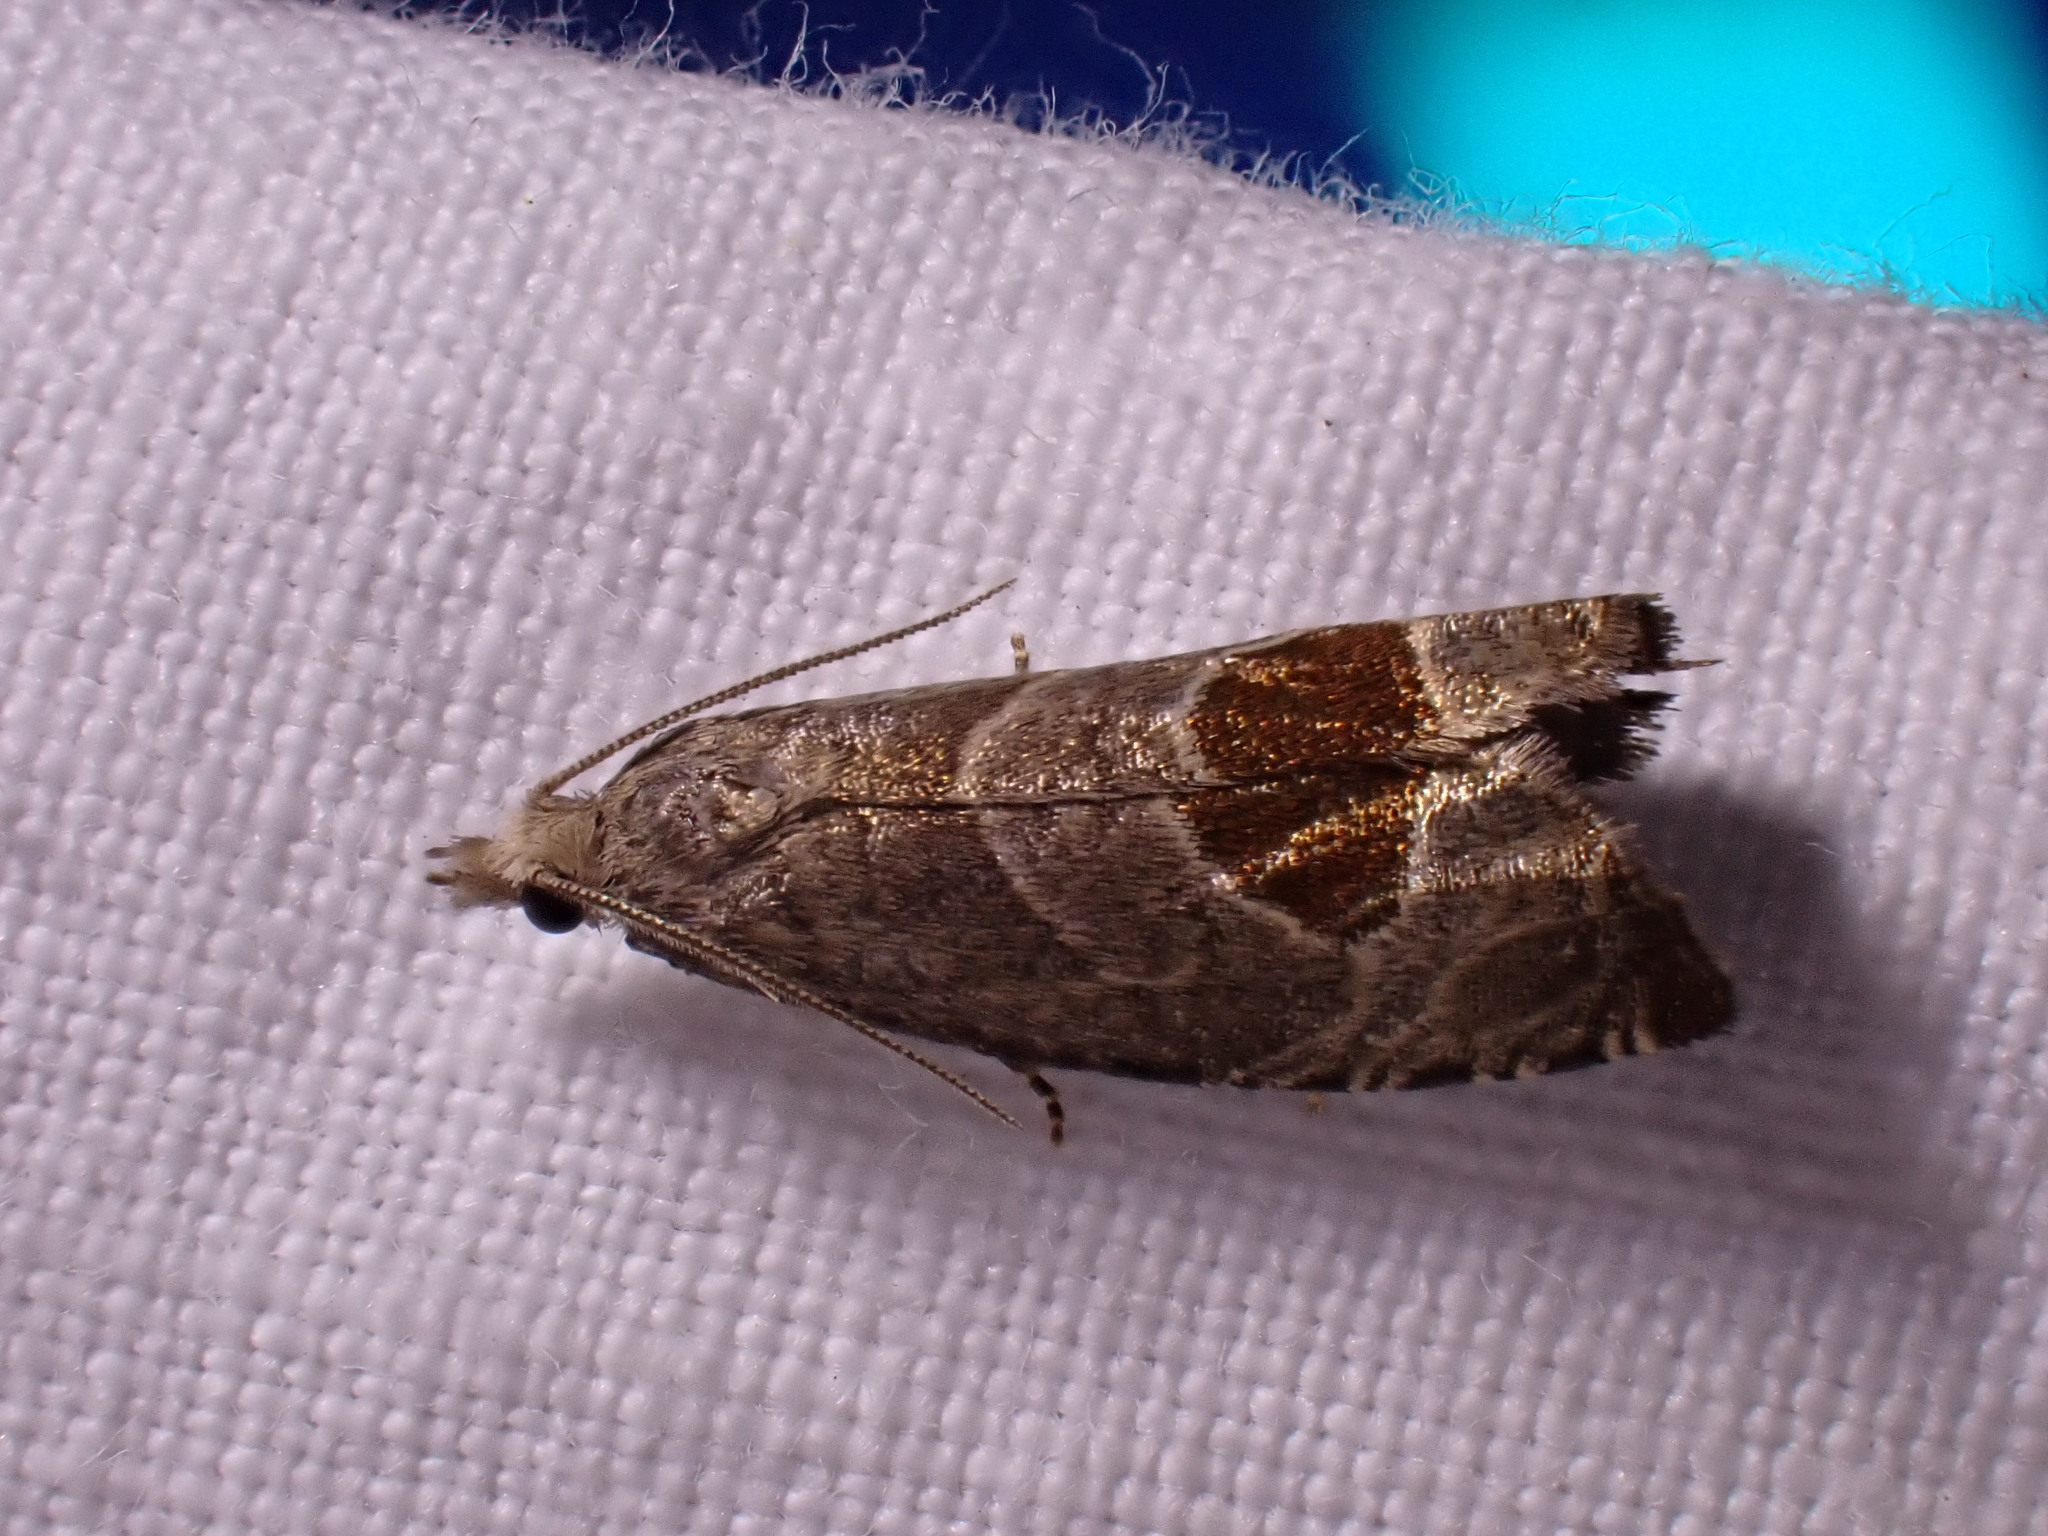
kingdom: Animalia
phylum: Arthropoda
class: Insecta
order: Lepidoptera
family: Tortricidae
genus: Notocelia
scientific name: Notocelia uddmanniana
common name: Bramble shoot moth
